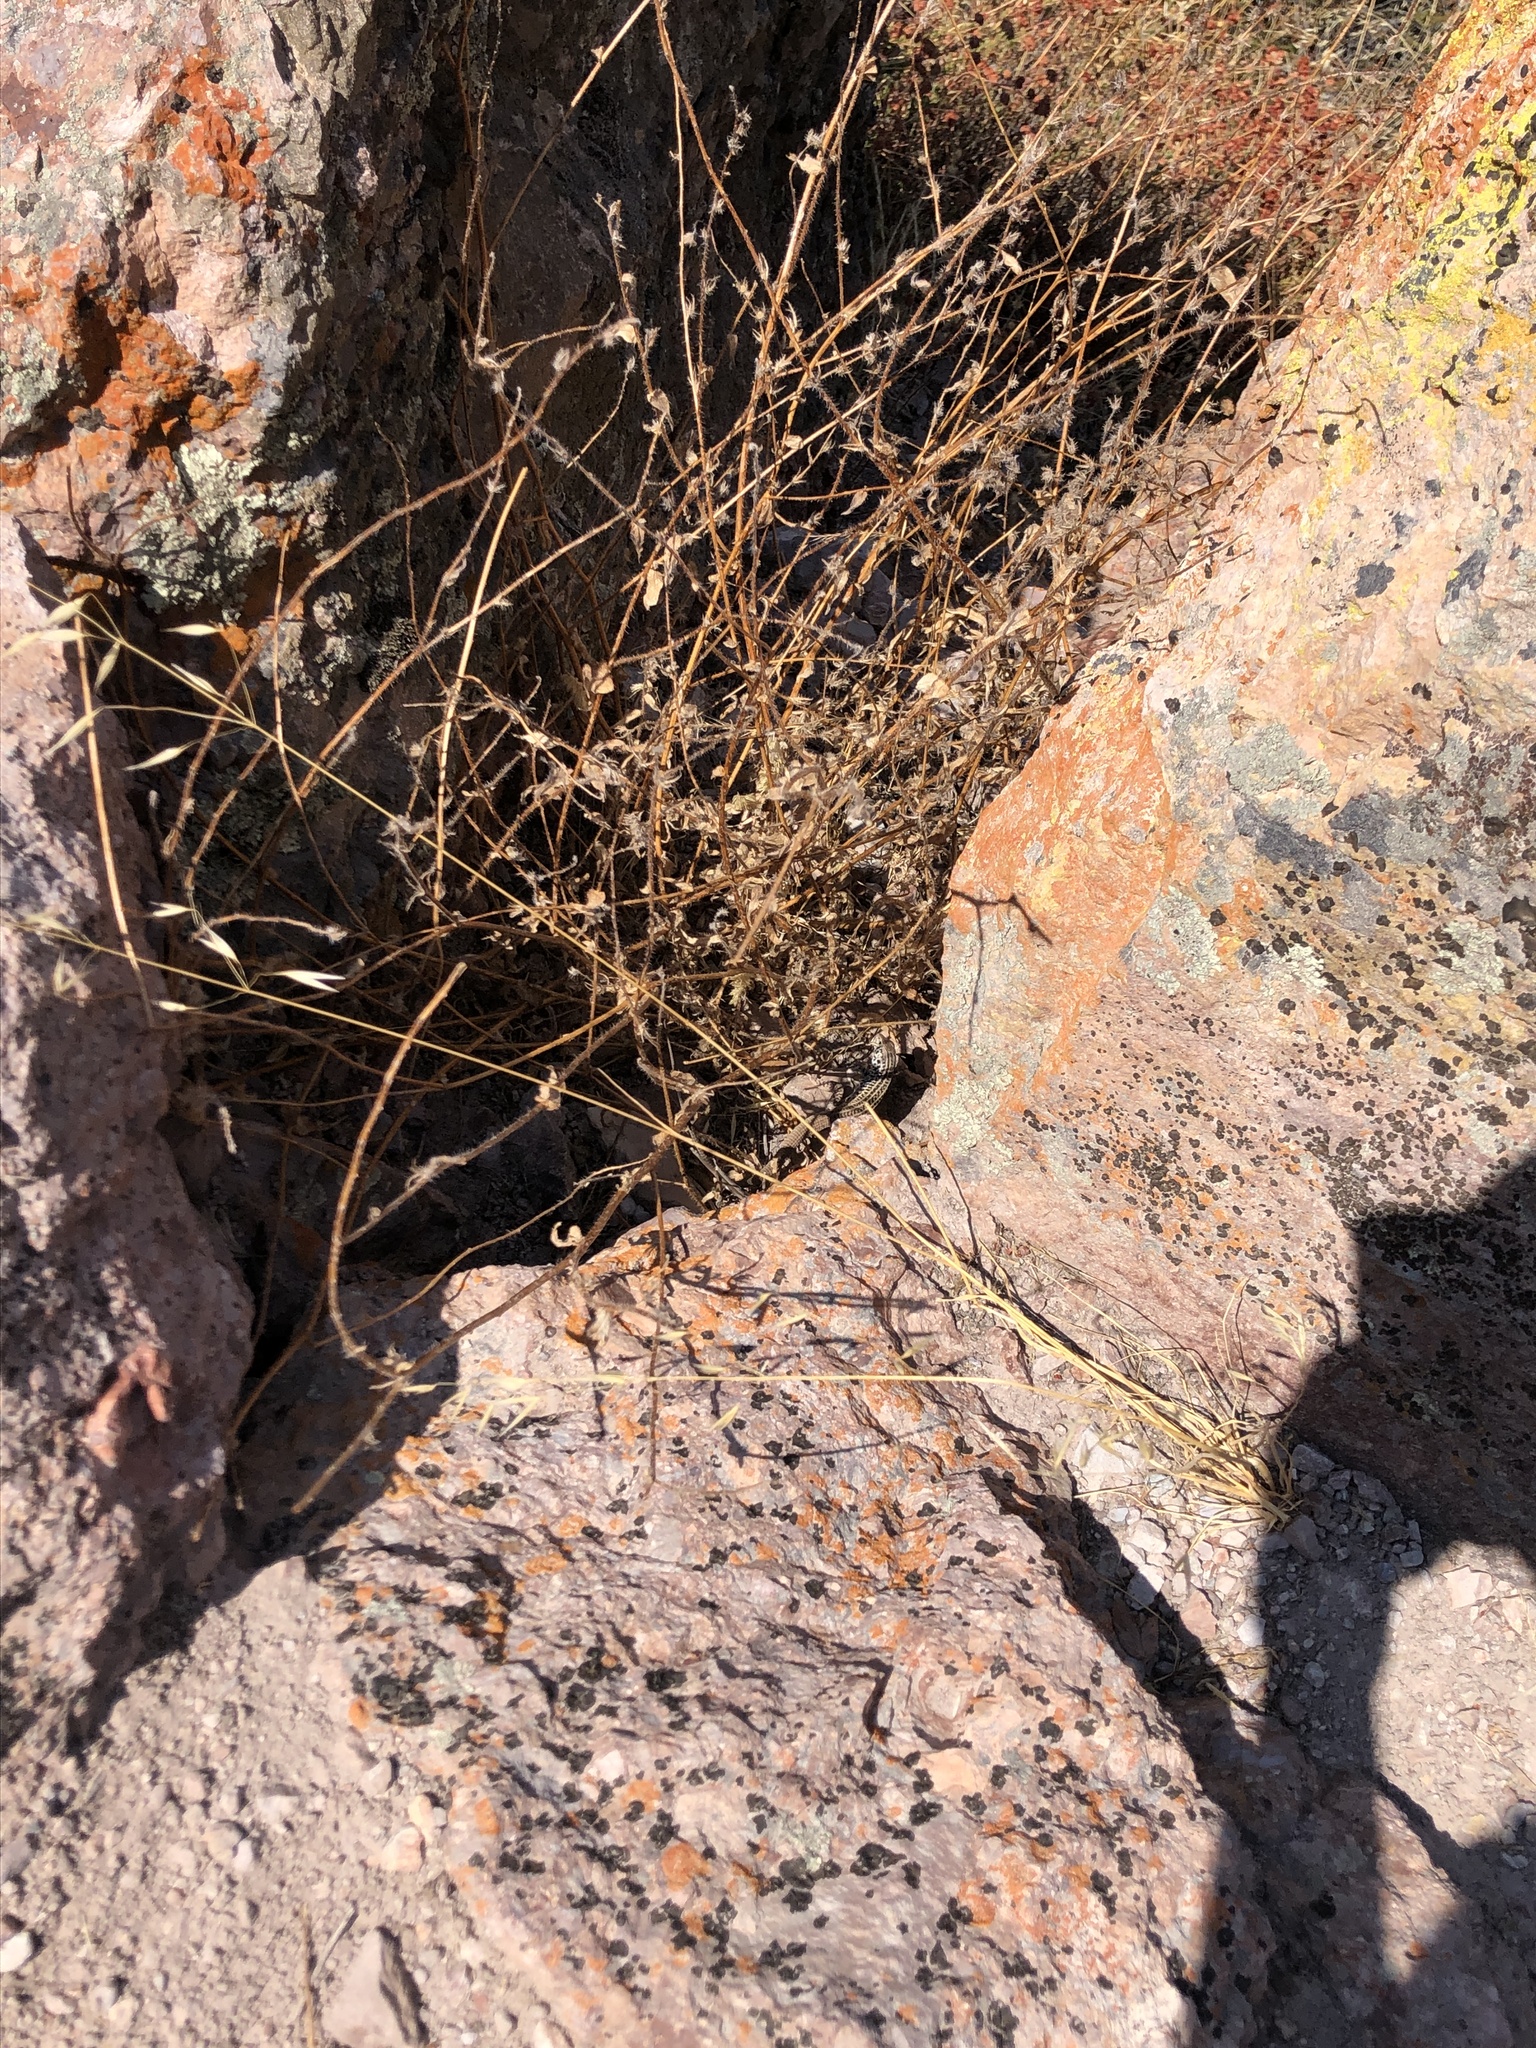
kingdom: Animalia
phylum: Chordata
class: Squamata
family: Teiidae
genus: Aspidoscelis
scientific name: Aspidoscelis tigris
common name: Tiger whiptail
